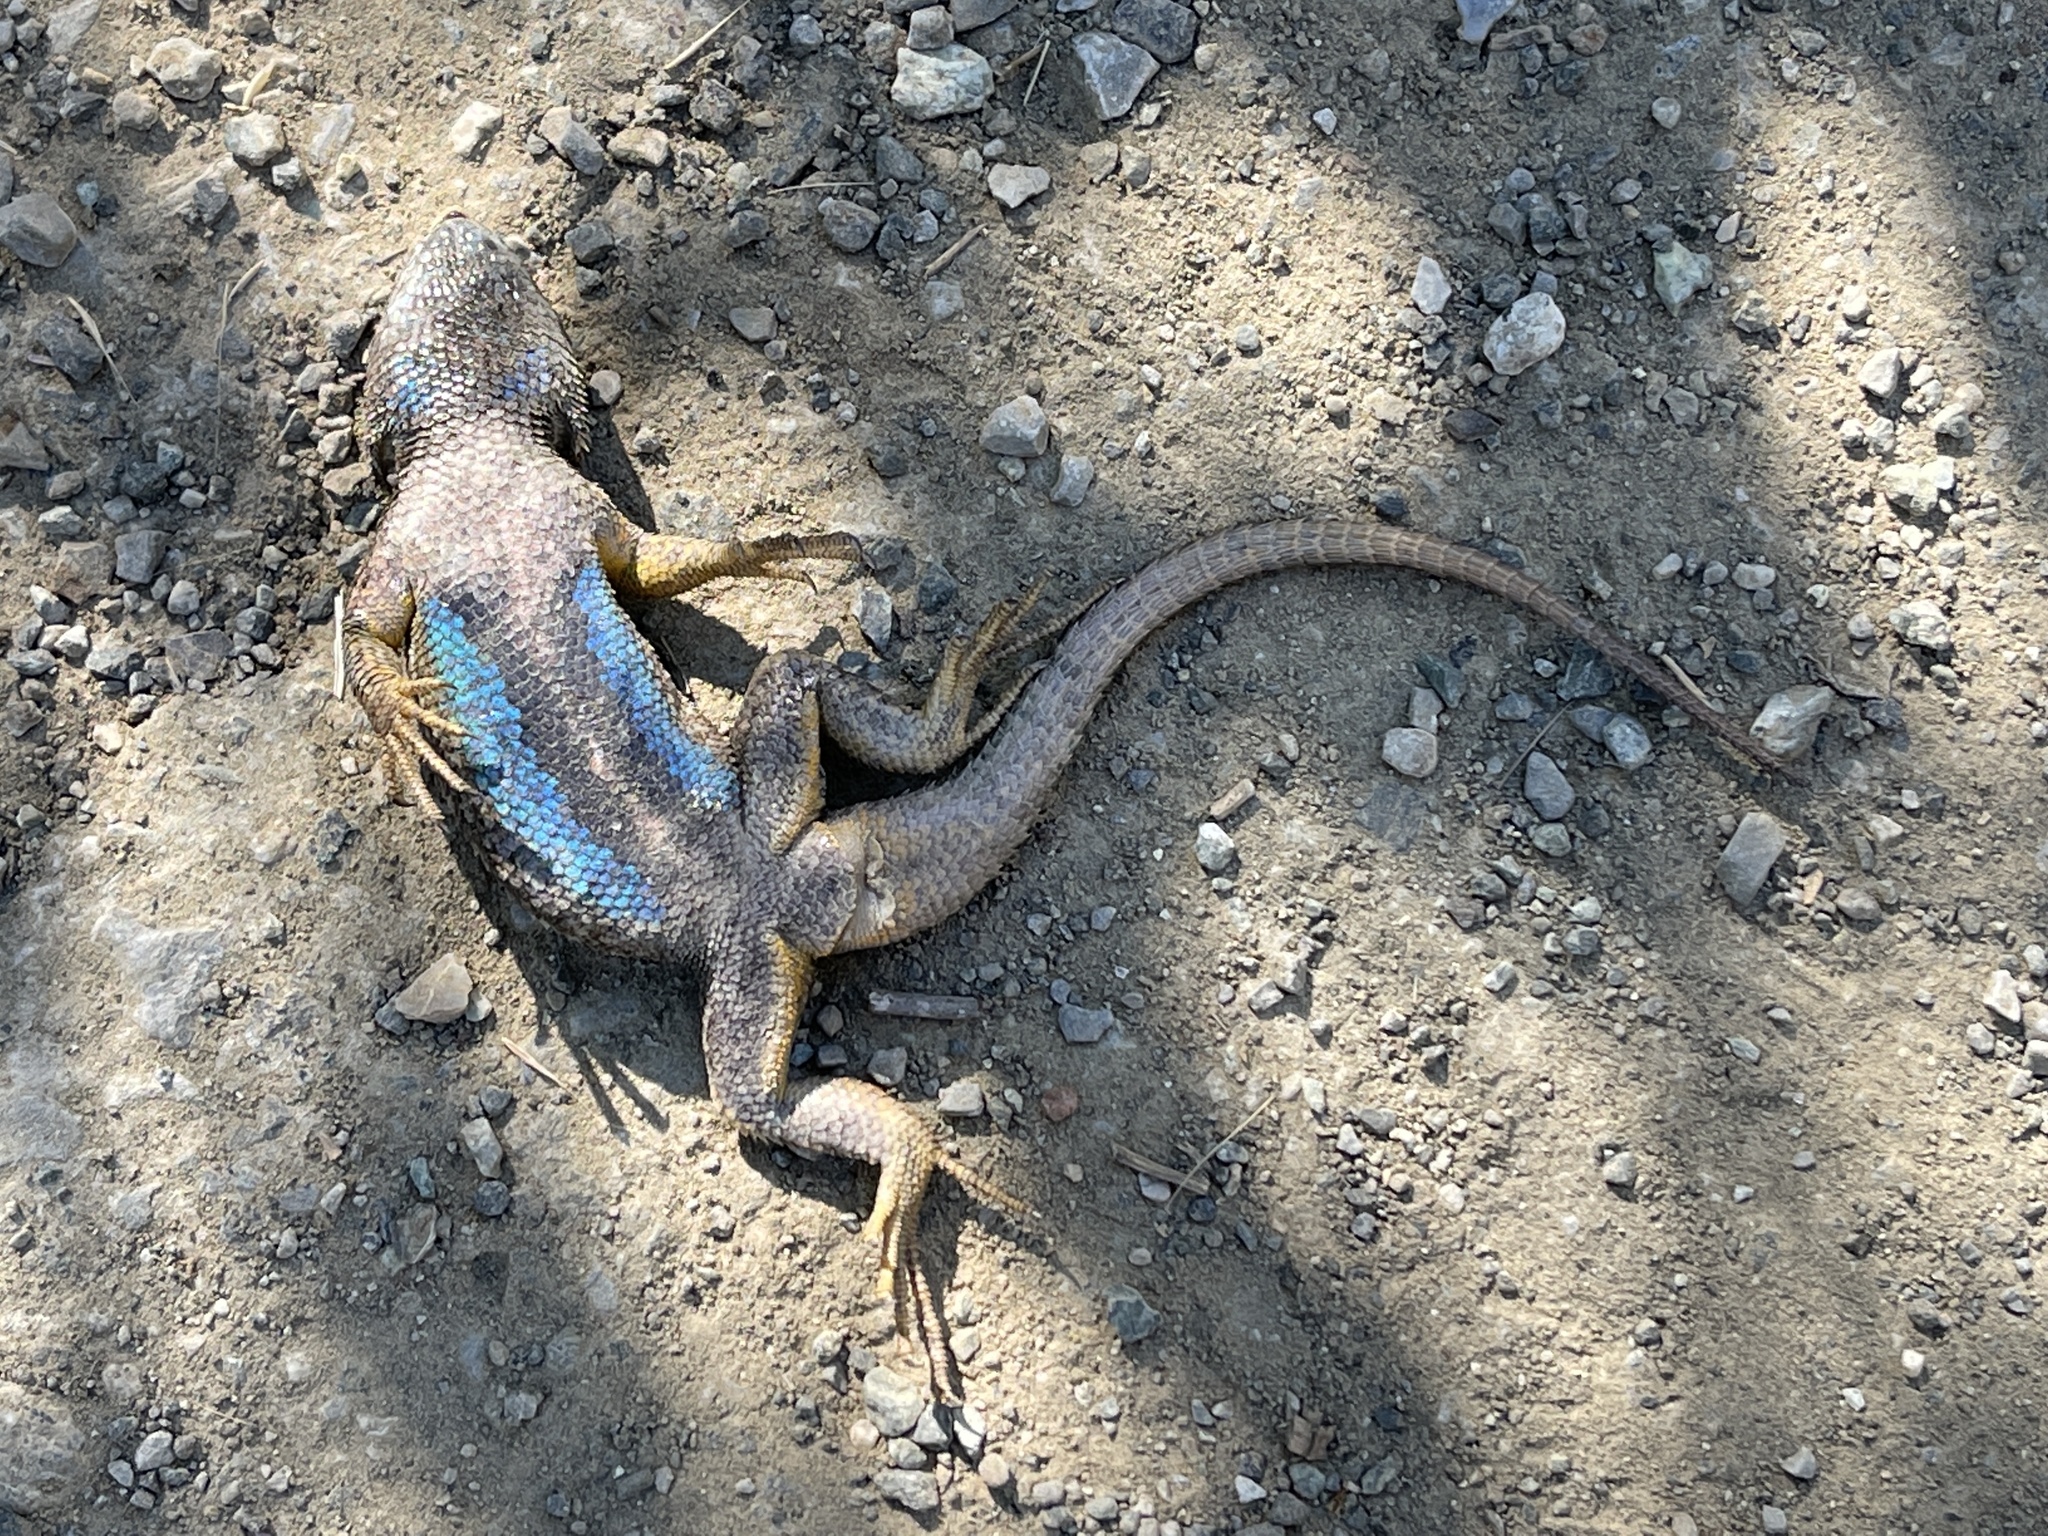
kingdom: Animalia
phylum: Chordata
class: Squamata
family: Phrynosomatidae
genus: Sceloporus
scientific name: Sceloporus occidentalis
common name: Western fence lizard
